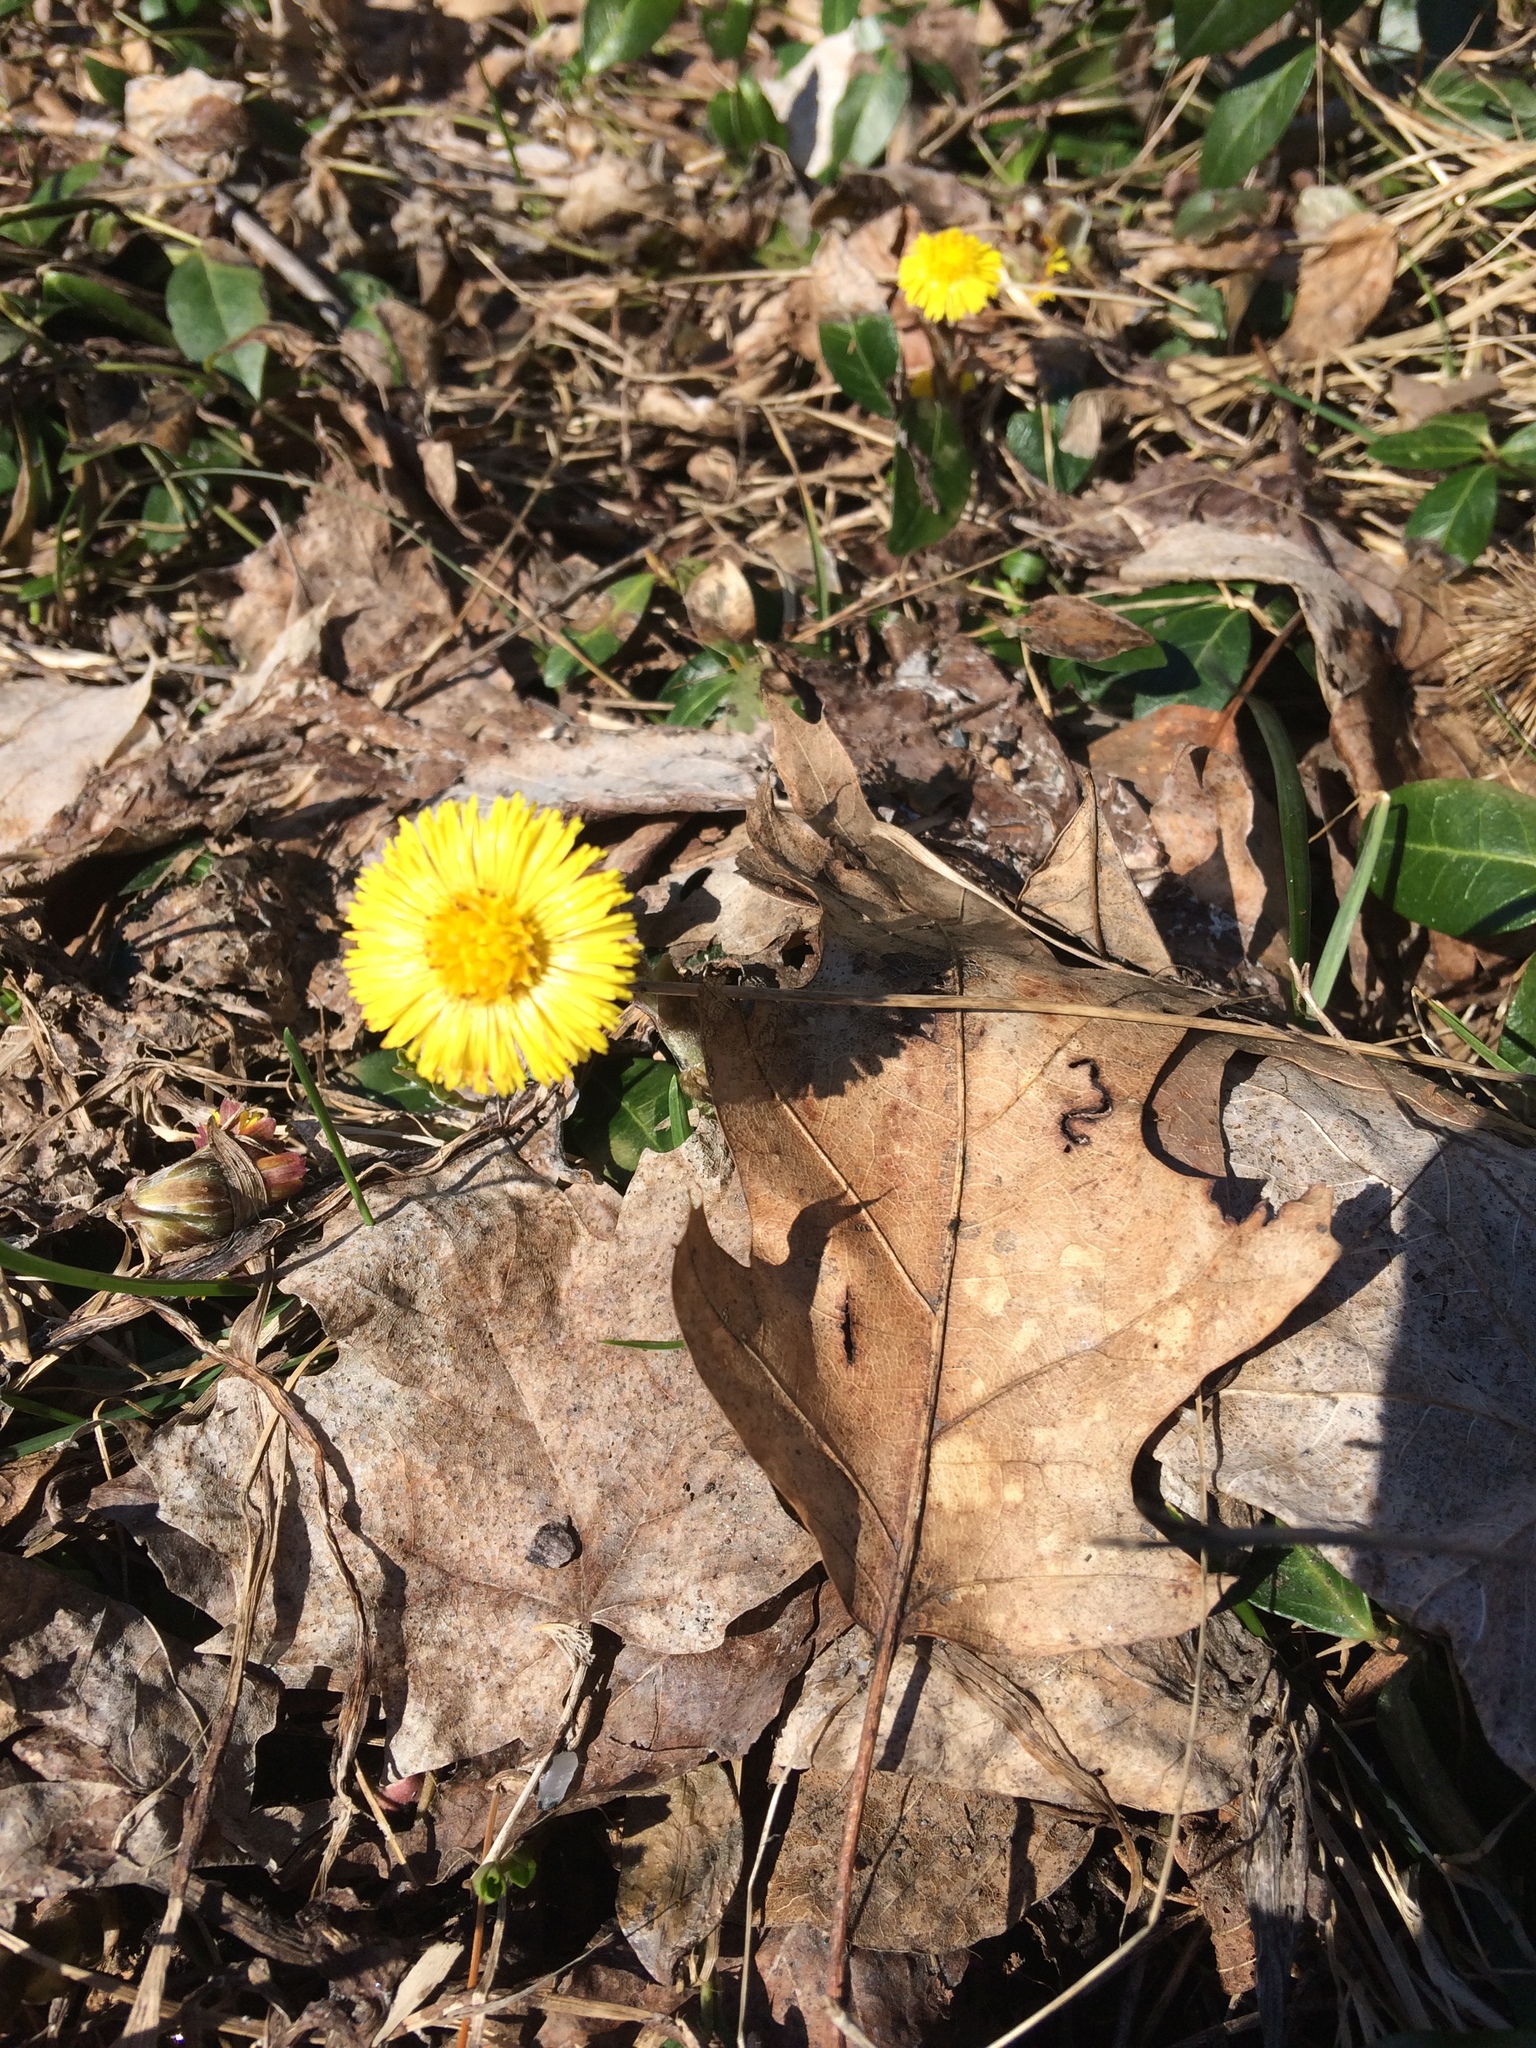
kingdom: Plantae
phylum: Tracheophyta
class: Magnoliopsida
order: Asterales
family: Asteraceae
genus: Tussilago
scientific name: Tussilago farfara
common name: Coltsfoot
